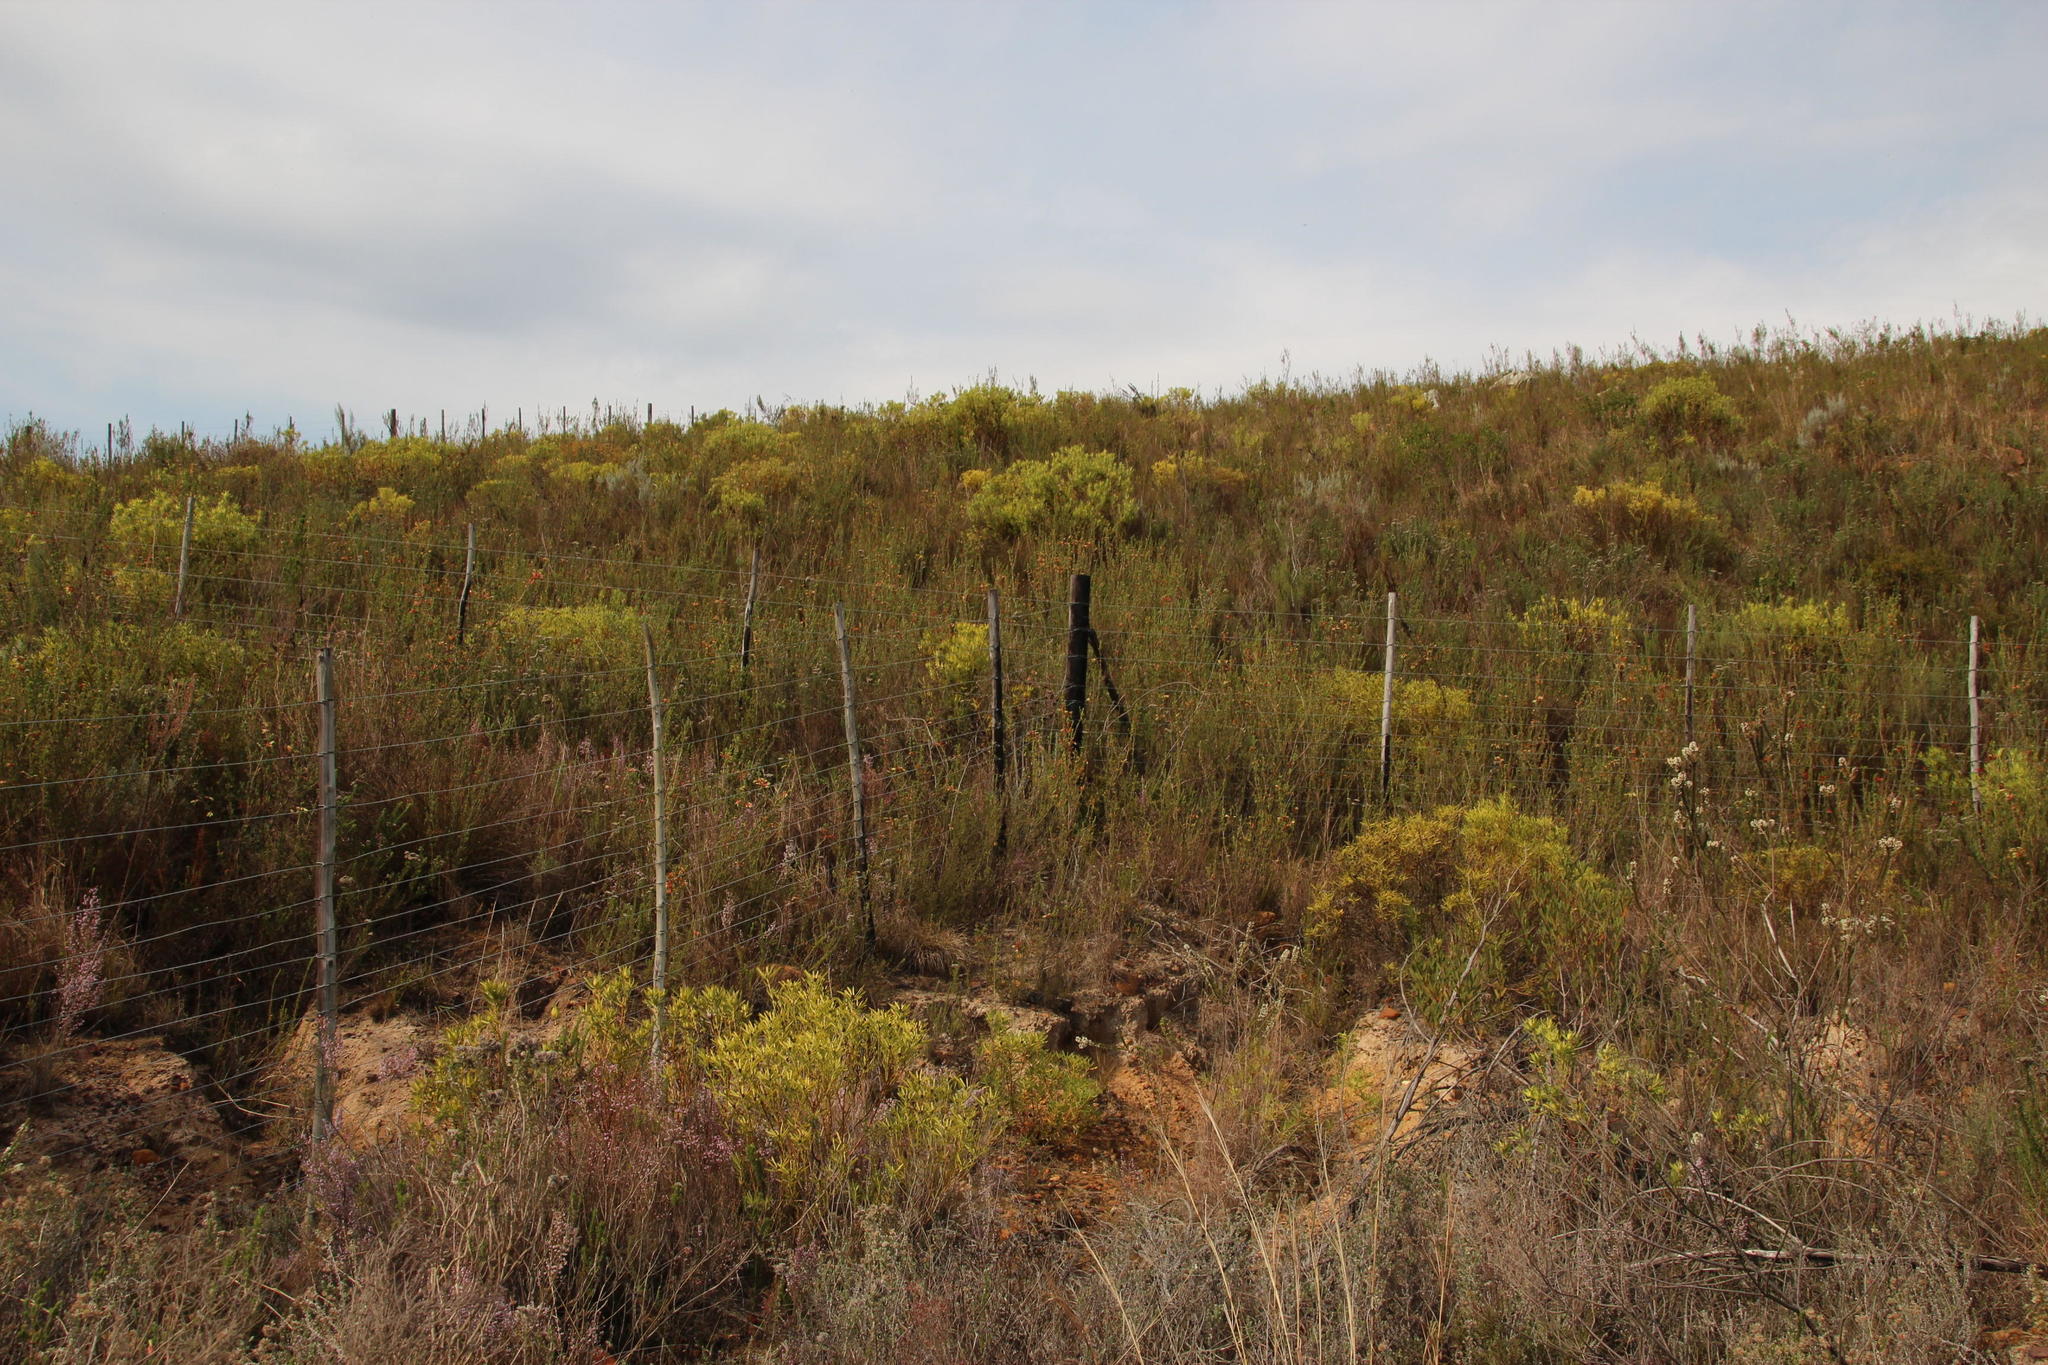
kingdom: Plantae
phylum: Tracheophyta
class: Magnoliopsida
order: Proteales
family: Proteaceae
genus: Leucadendron
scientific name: Leucadendron salignum
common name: Common sunshine conebush
